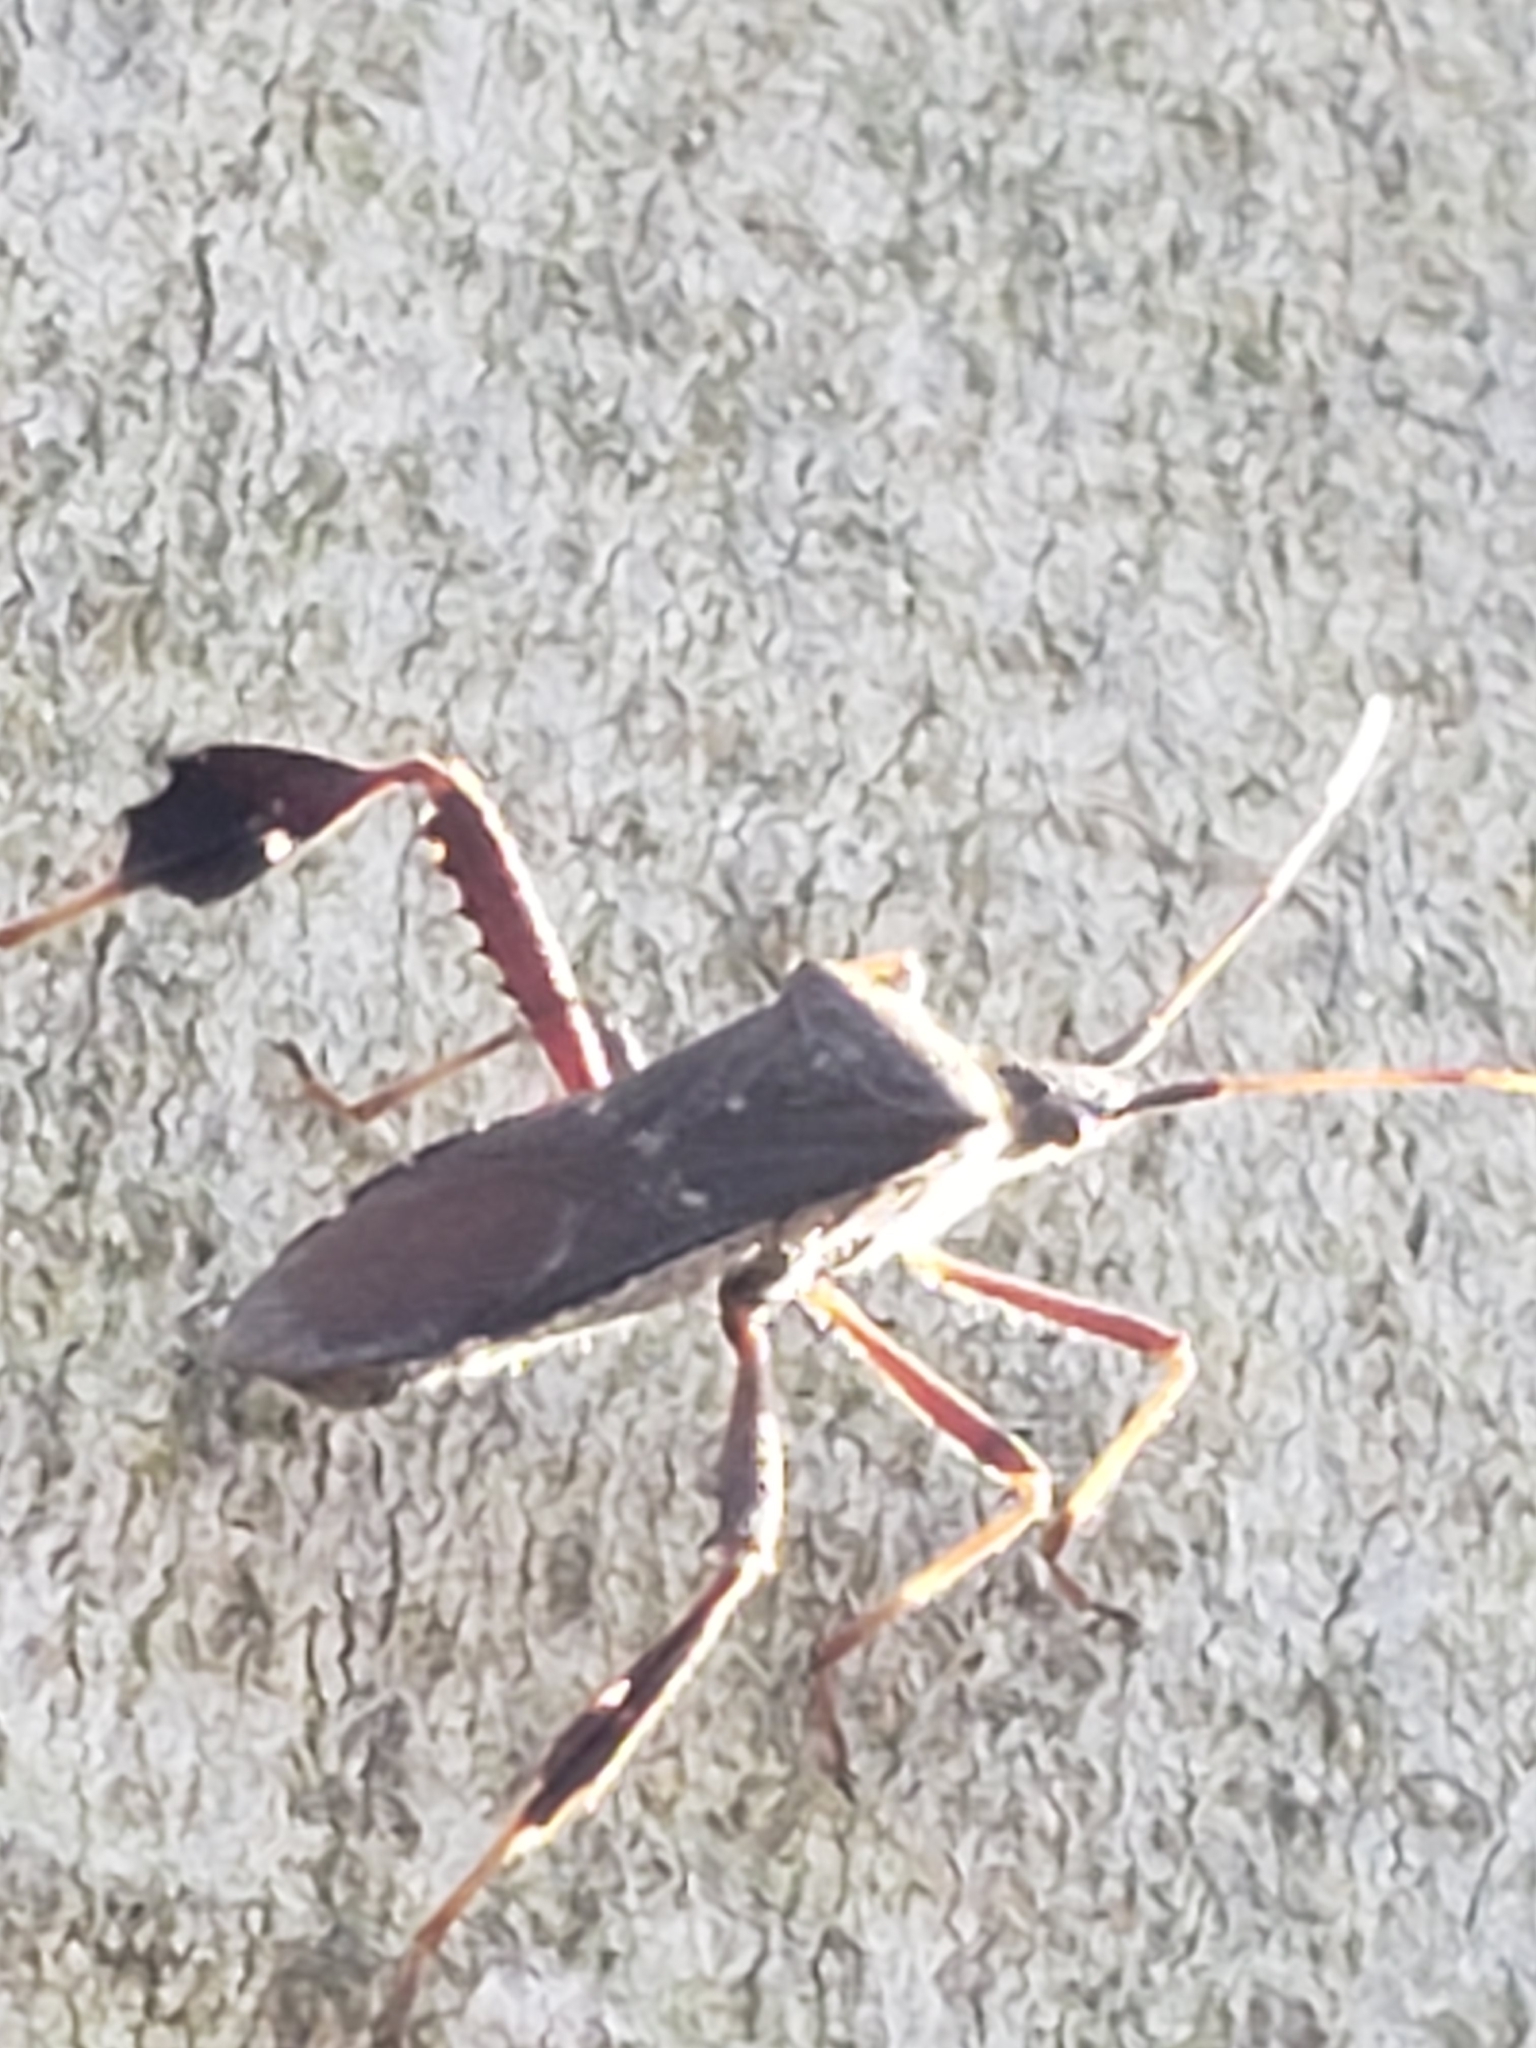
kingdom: Animalia
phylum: Arthropoda
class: Insecta
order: Hemiptera
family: Coreidae
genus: Leptoglossus
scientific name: Leptoglossus oppositus
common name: Northern leaf-footed bug
